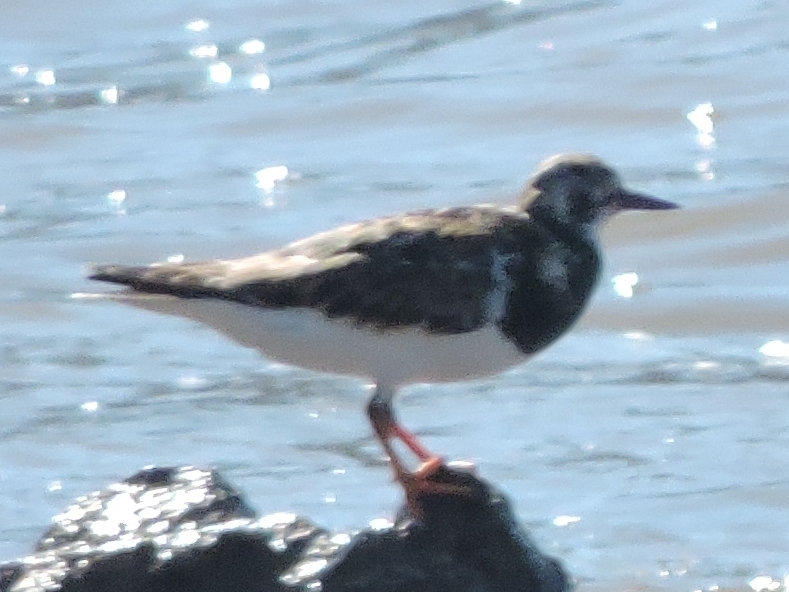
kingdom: Animalia
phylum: Chordata
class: Aves
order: Charadriiformes
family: Scolopacidae
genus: Arenaria
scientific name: Arenaria interpres
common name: Ruddy turnstone
